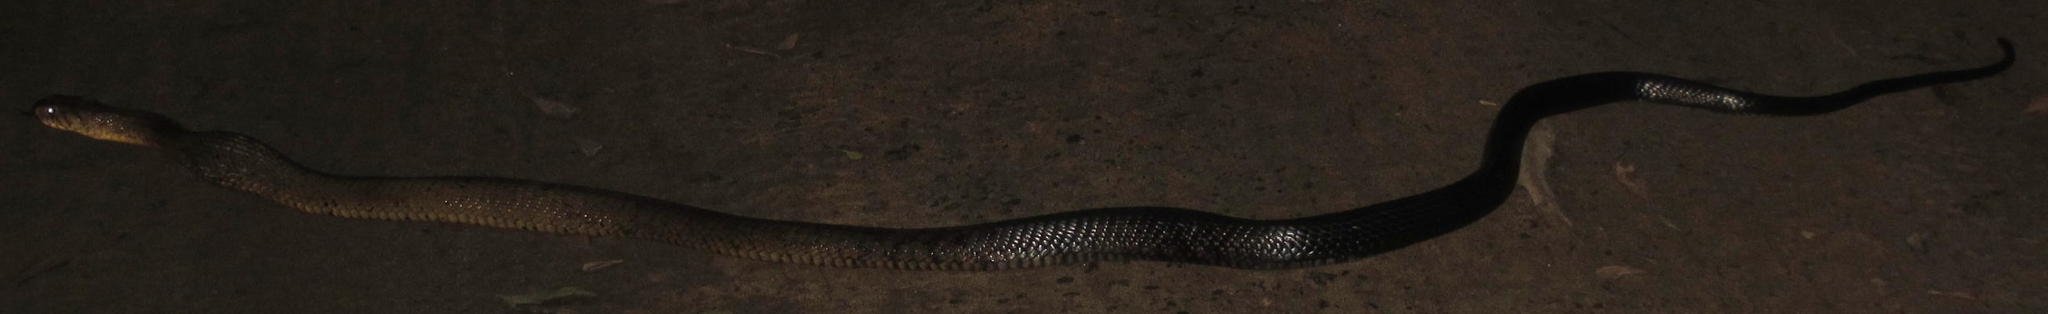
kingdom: Animalia
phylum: Chordata
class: Squamata
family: Elapidae
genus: Naja
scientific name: Naja subfulva
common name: Brown forest cobra
